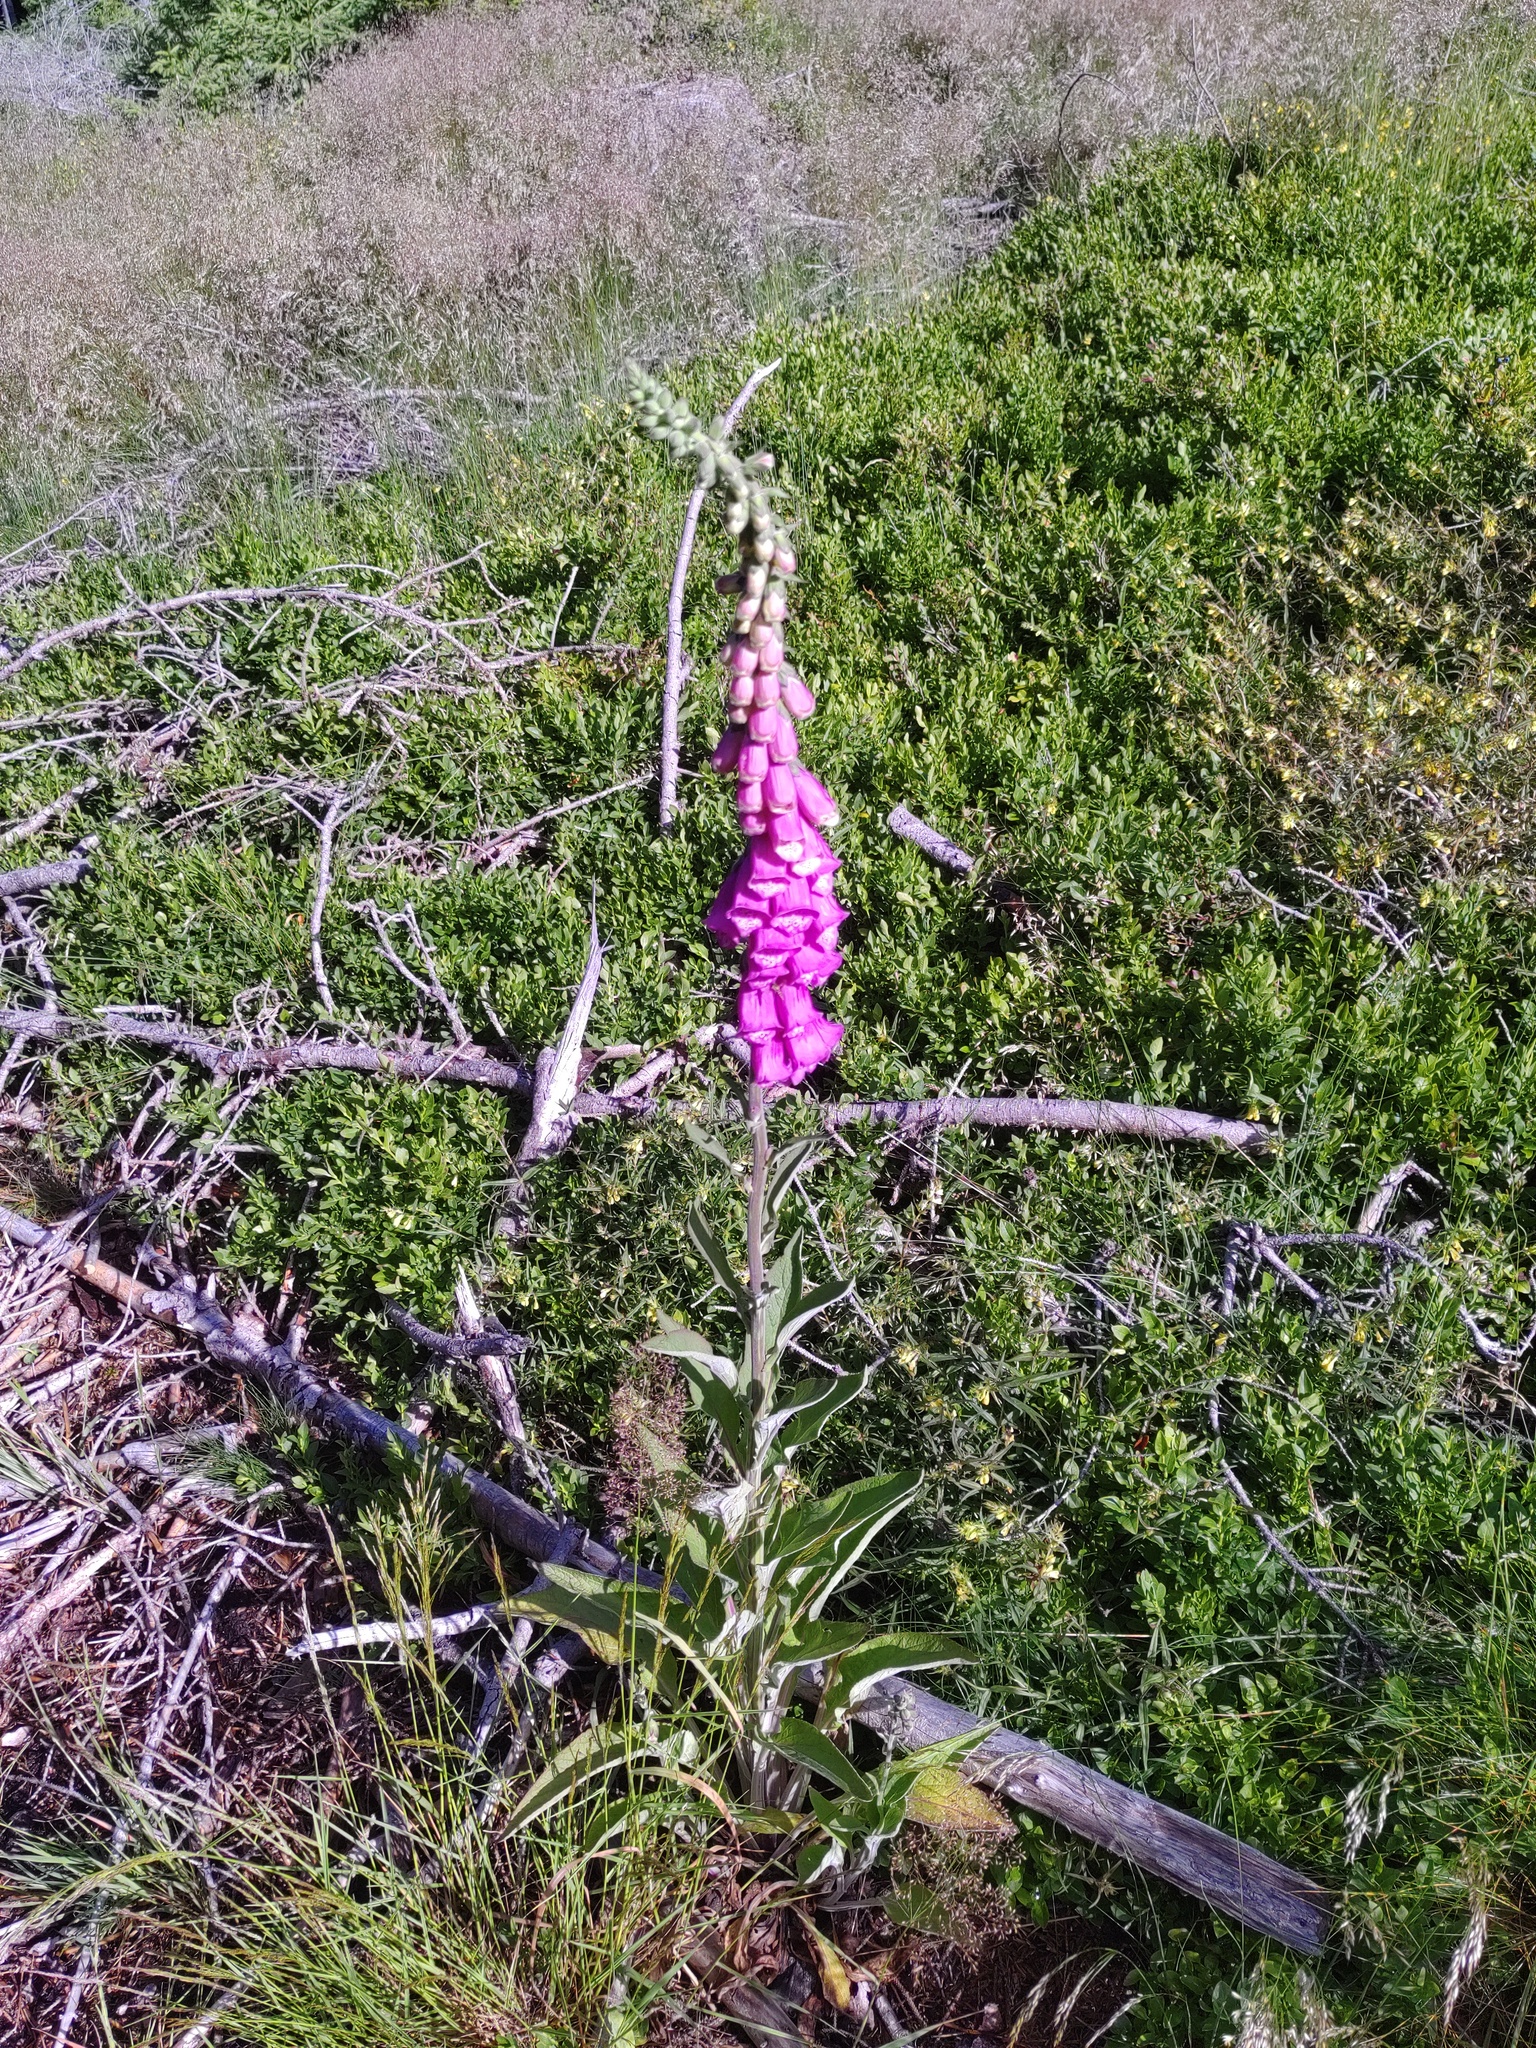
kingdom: Plantae
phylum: Tracheophyta
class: Magnoliopsida
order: Lamiales
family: Plantaginaceae
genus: Digitalis
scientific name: Digitalis purpurea
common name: Foxglove
